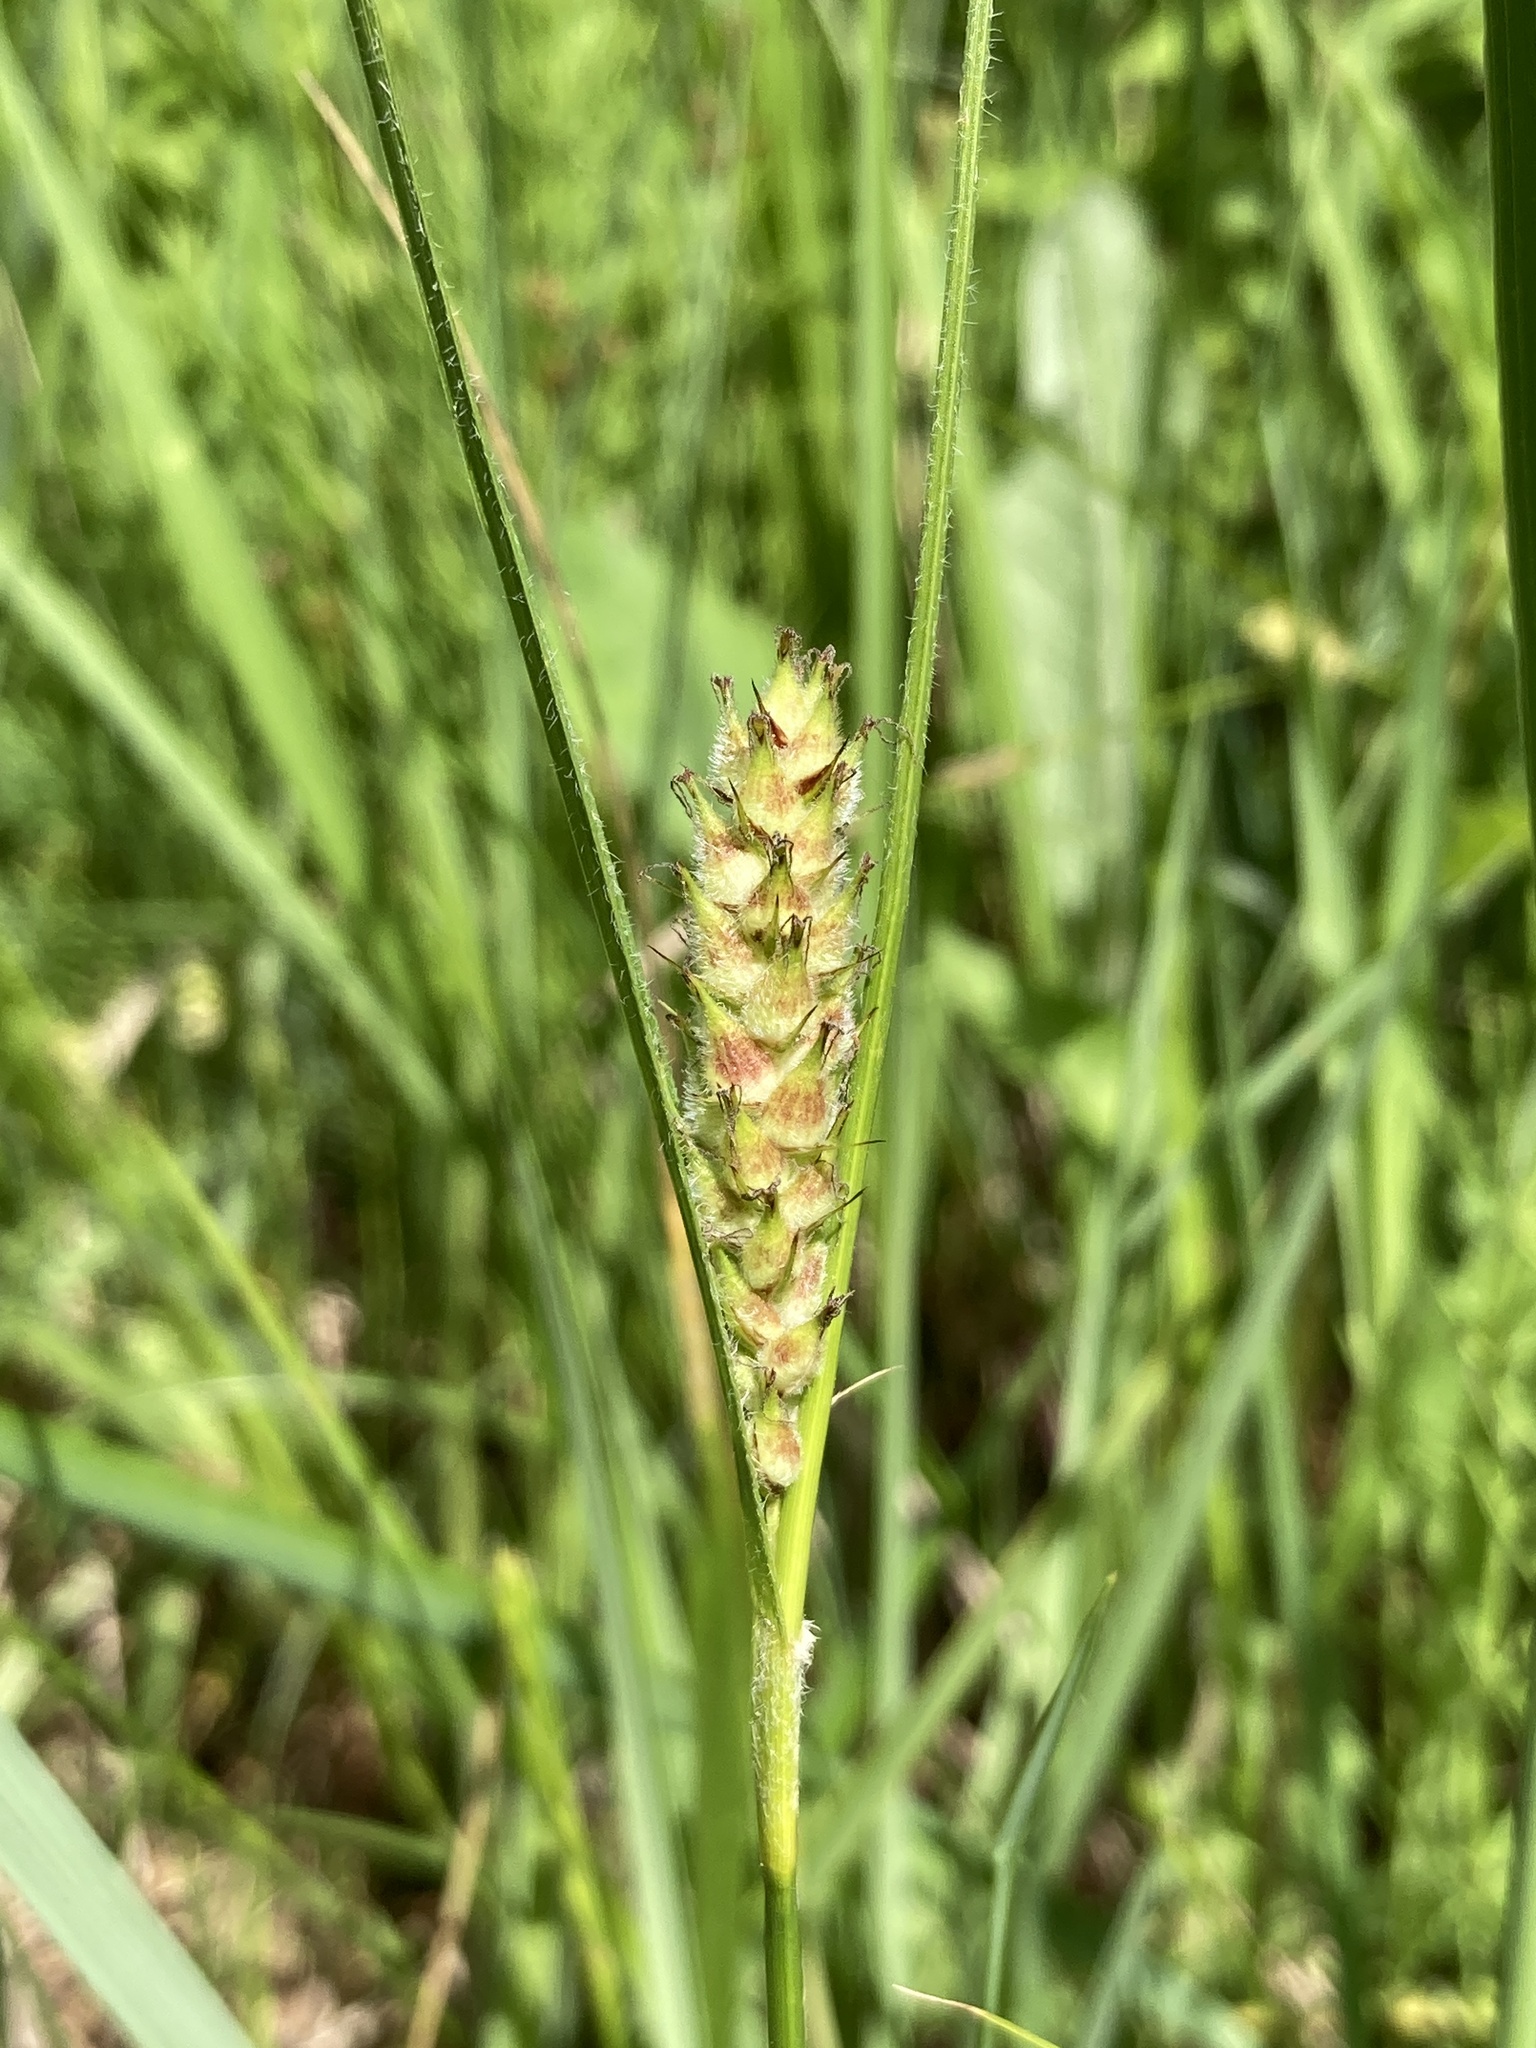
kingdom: Plantae
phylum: Tracheophyta
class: Liliopsida
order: Poales
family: Cyperaceae
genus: Carex
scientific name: Carex hirta
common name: Hairy sedge
